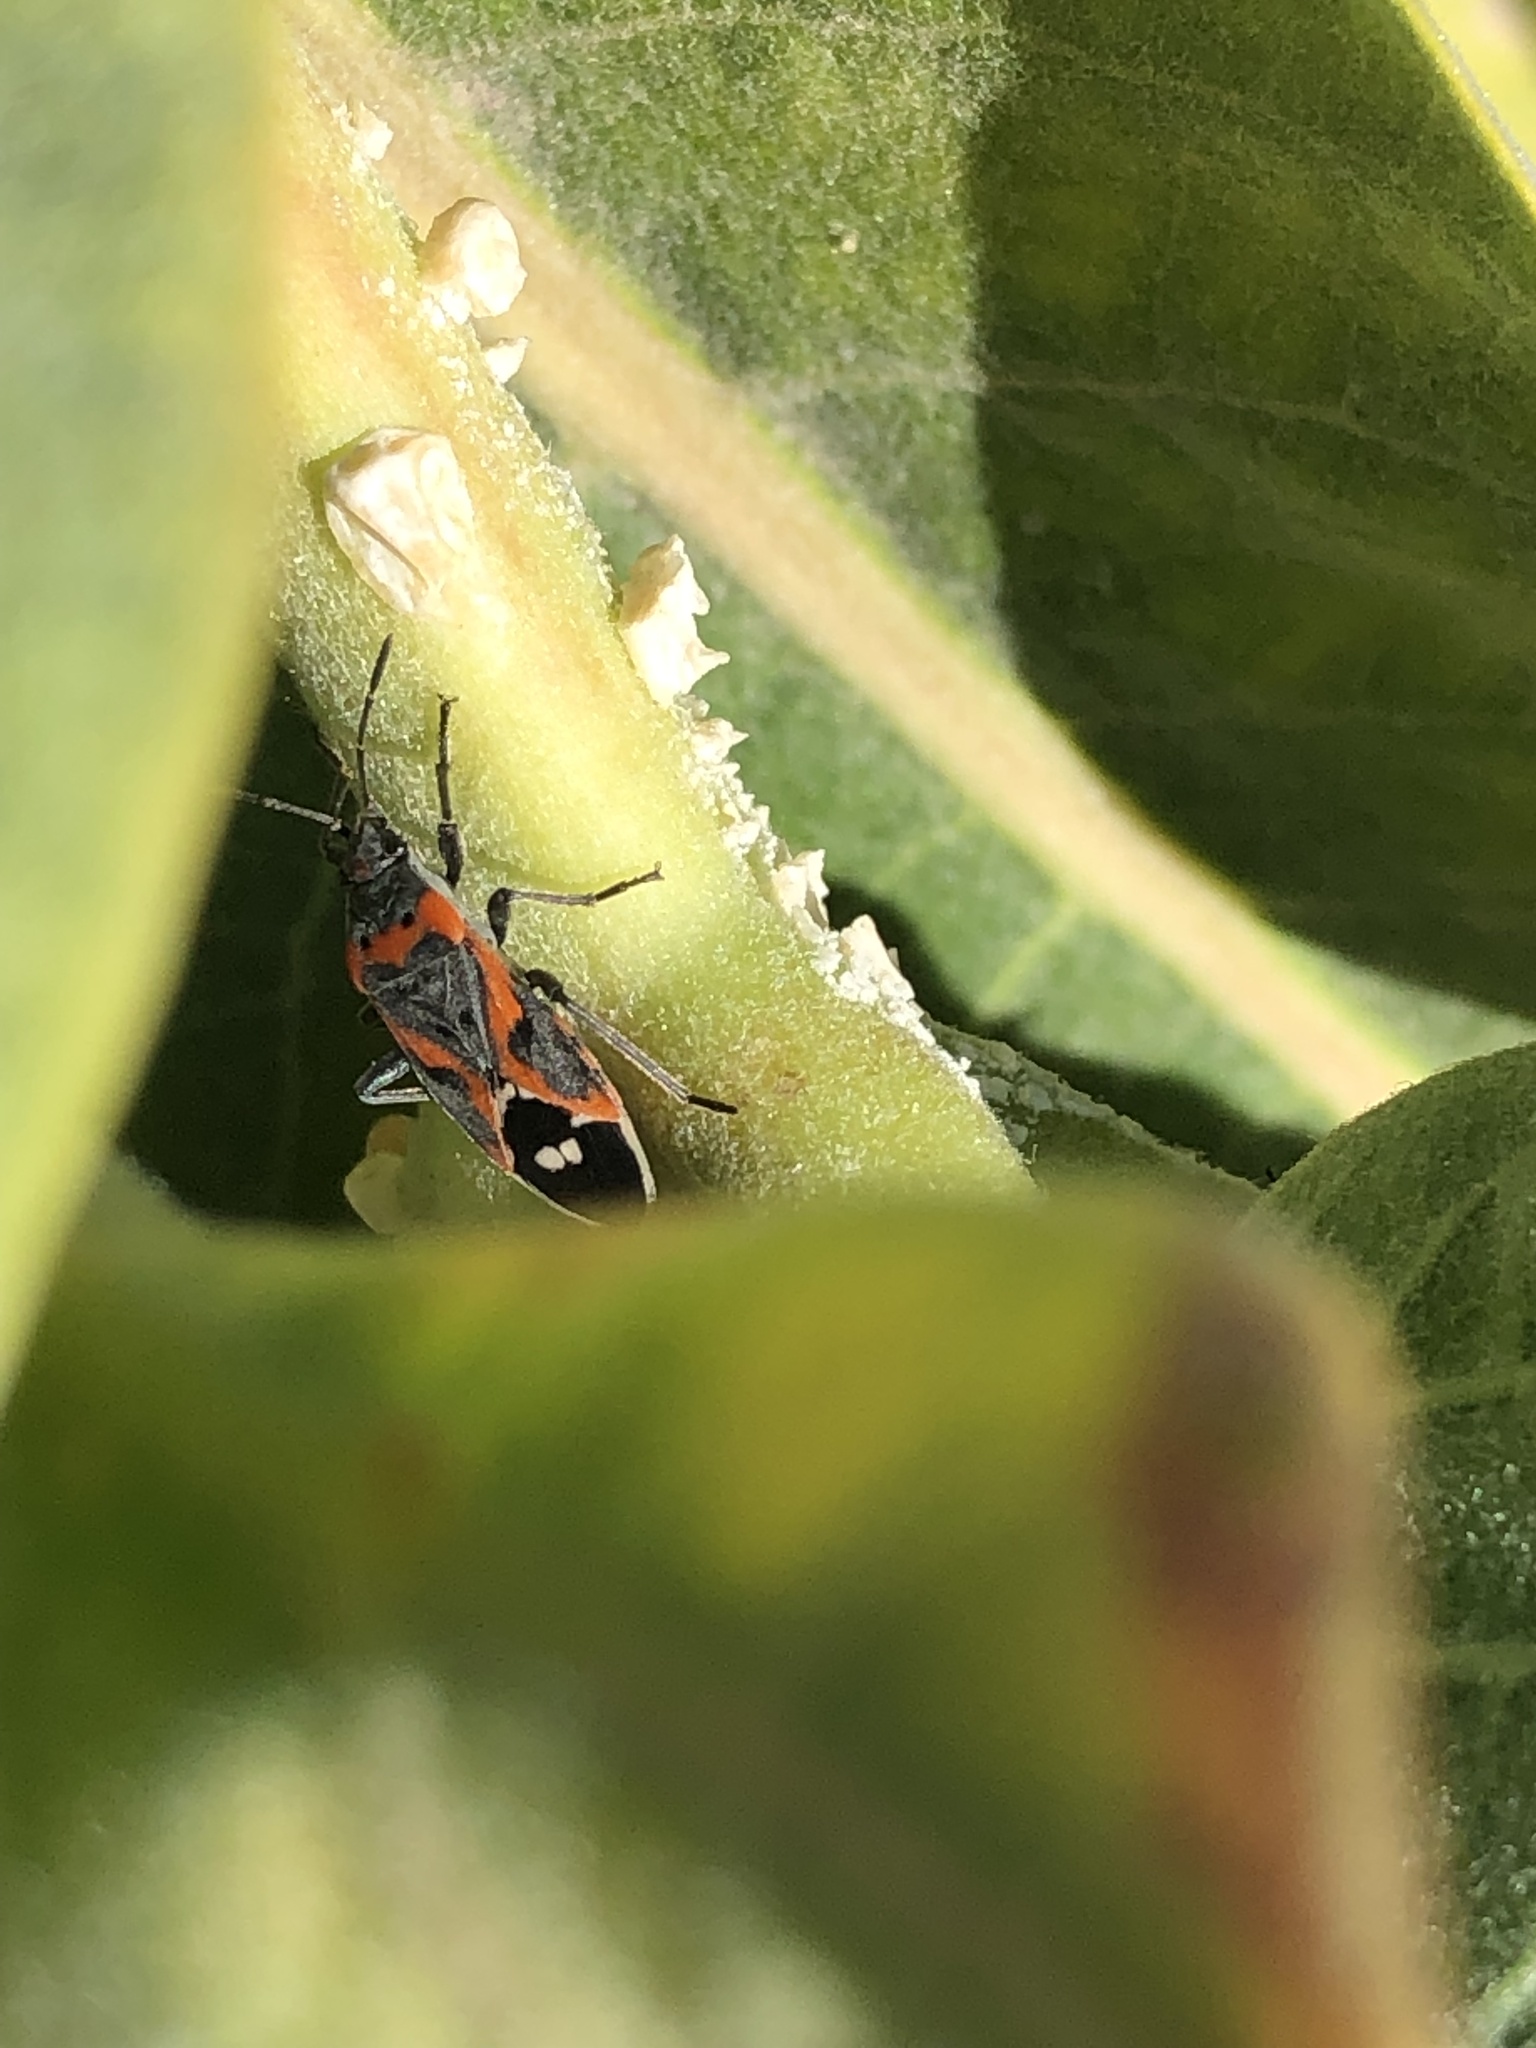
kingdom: Animalia
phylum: Arthropoda
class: Insecta
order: Hemiptera
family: Lygaeidae
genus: Lygaeus
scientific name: Lygaeus kalmii
